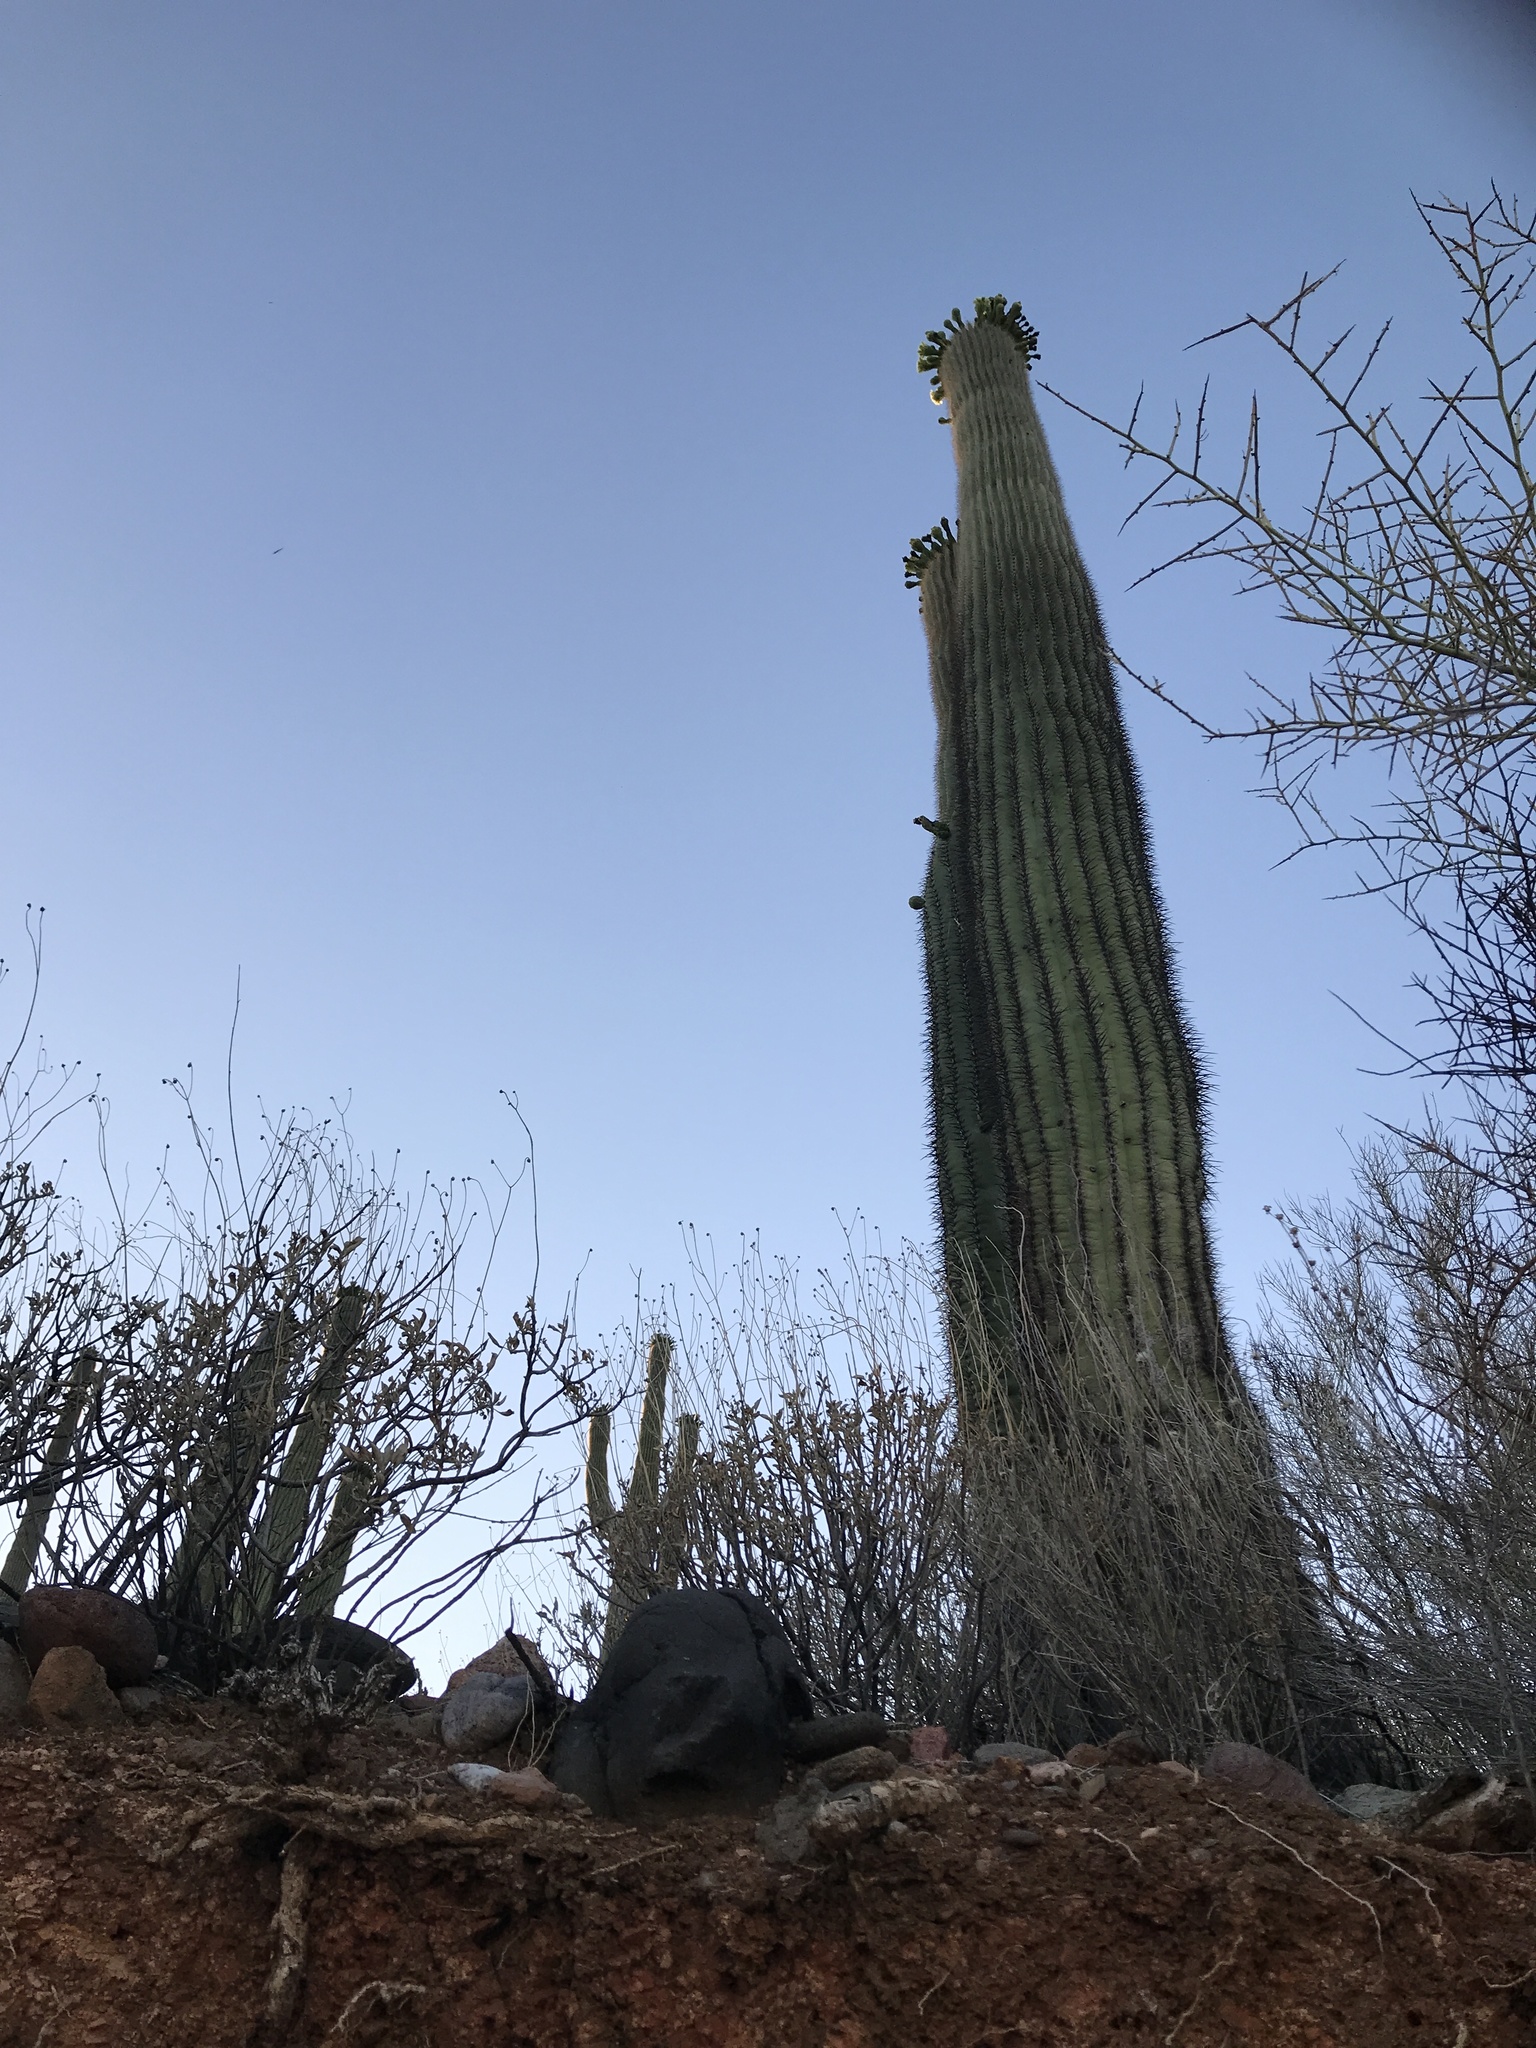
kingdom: Plantae
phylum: Tracheophyta
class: Magnoliopsida
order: Caryophyllales
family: Cactaceae
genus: Carnegiea
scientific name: Carnegiea gigantea
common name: Saguaro
